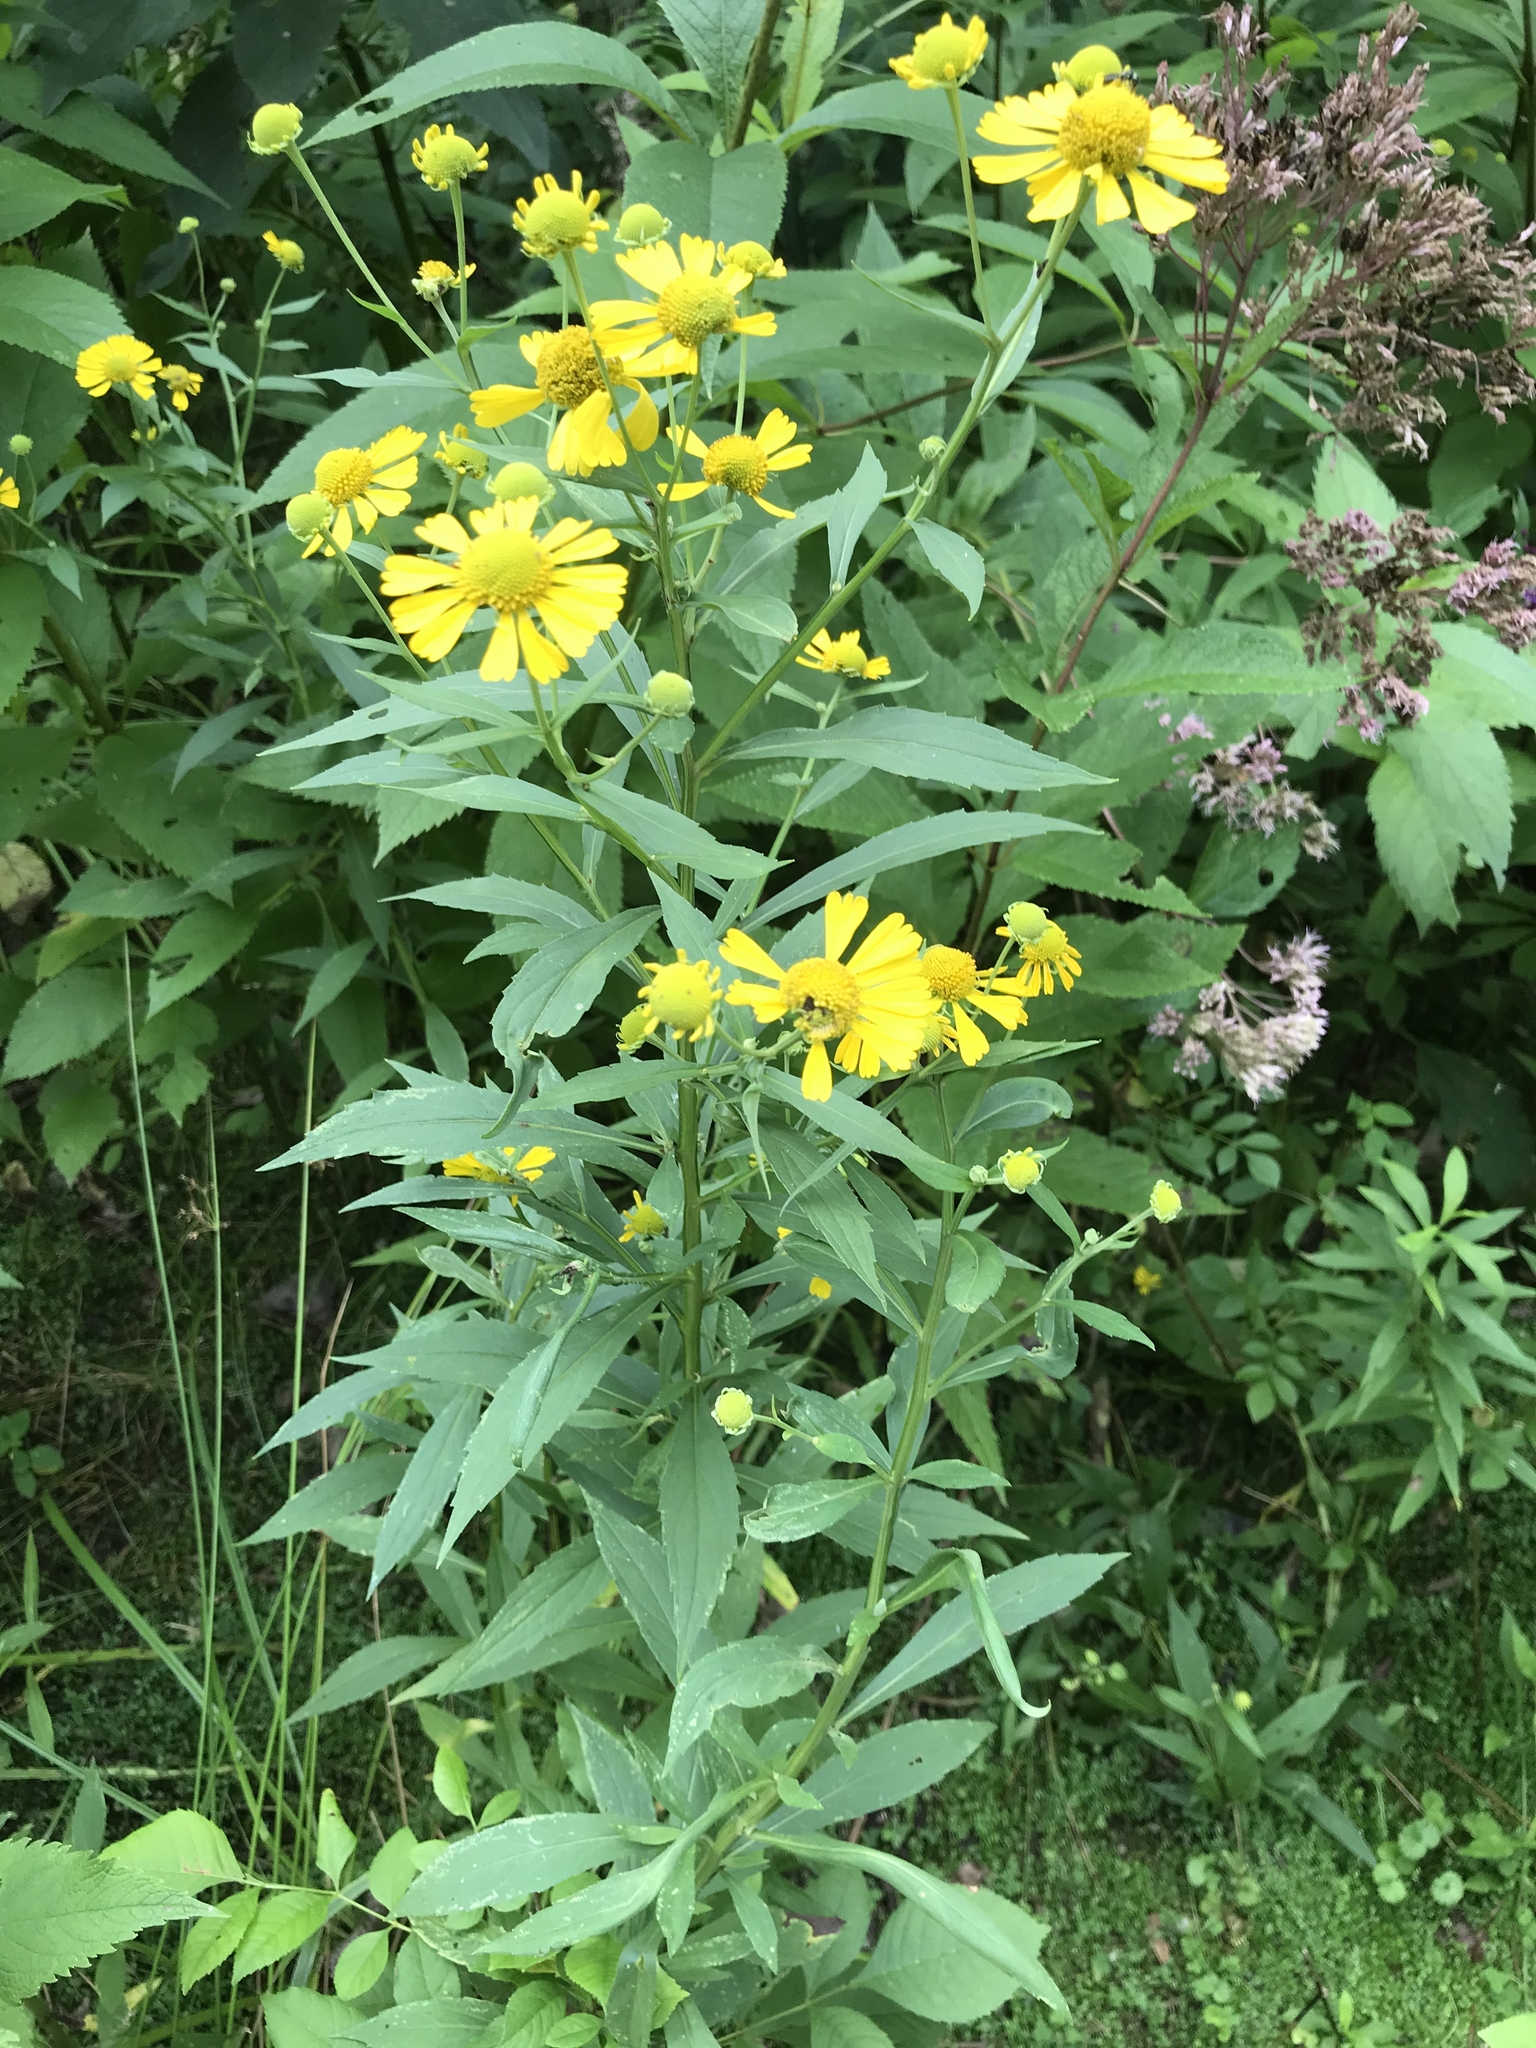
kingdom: Plantae
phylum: Tracheophyta
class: Magnoliopsida
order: Asterales
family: Asteraceae
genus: Helenium
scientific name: Helenium autumnale
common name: Sneezeweed
